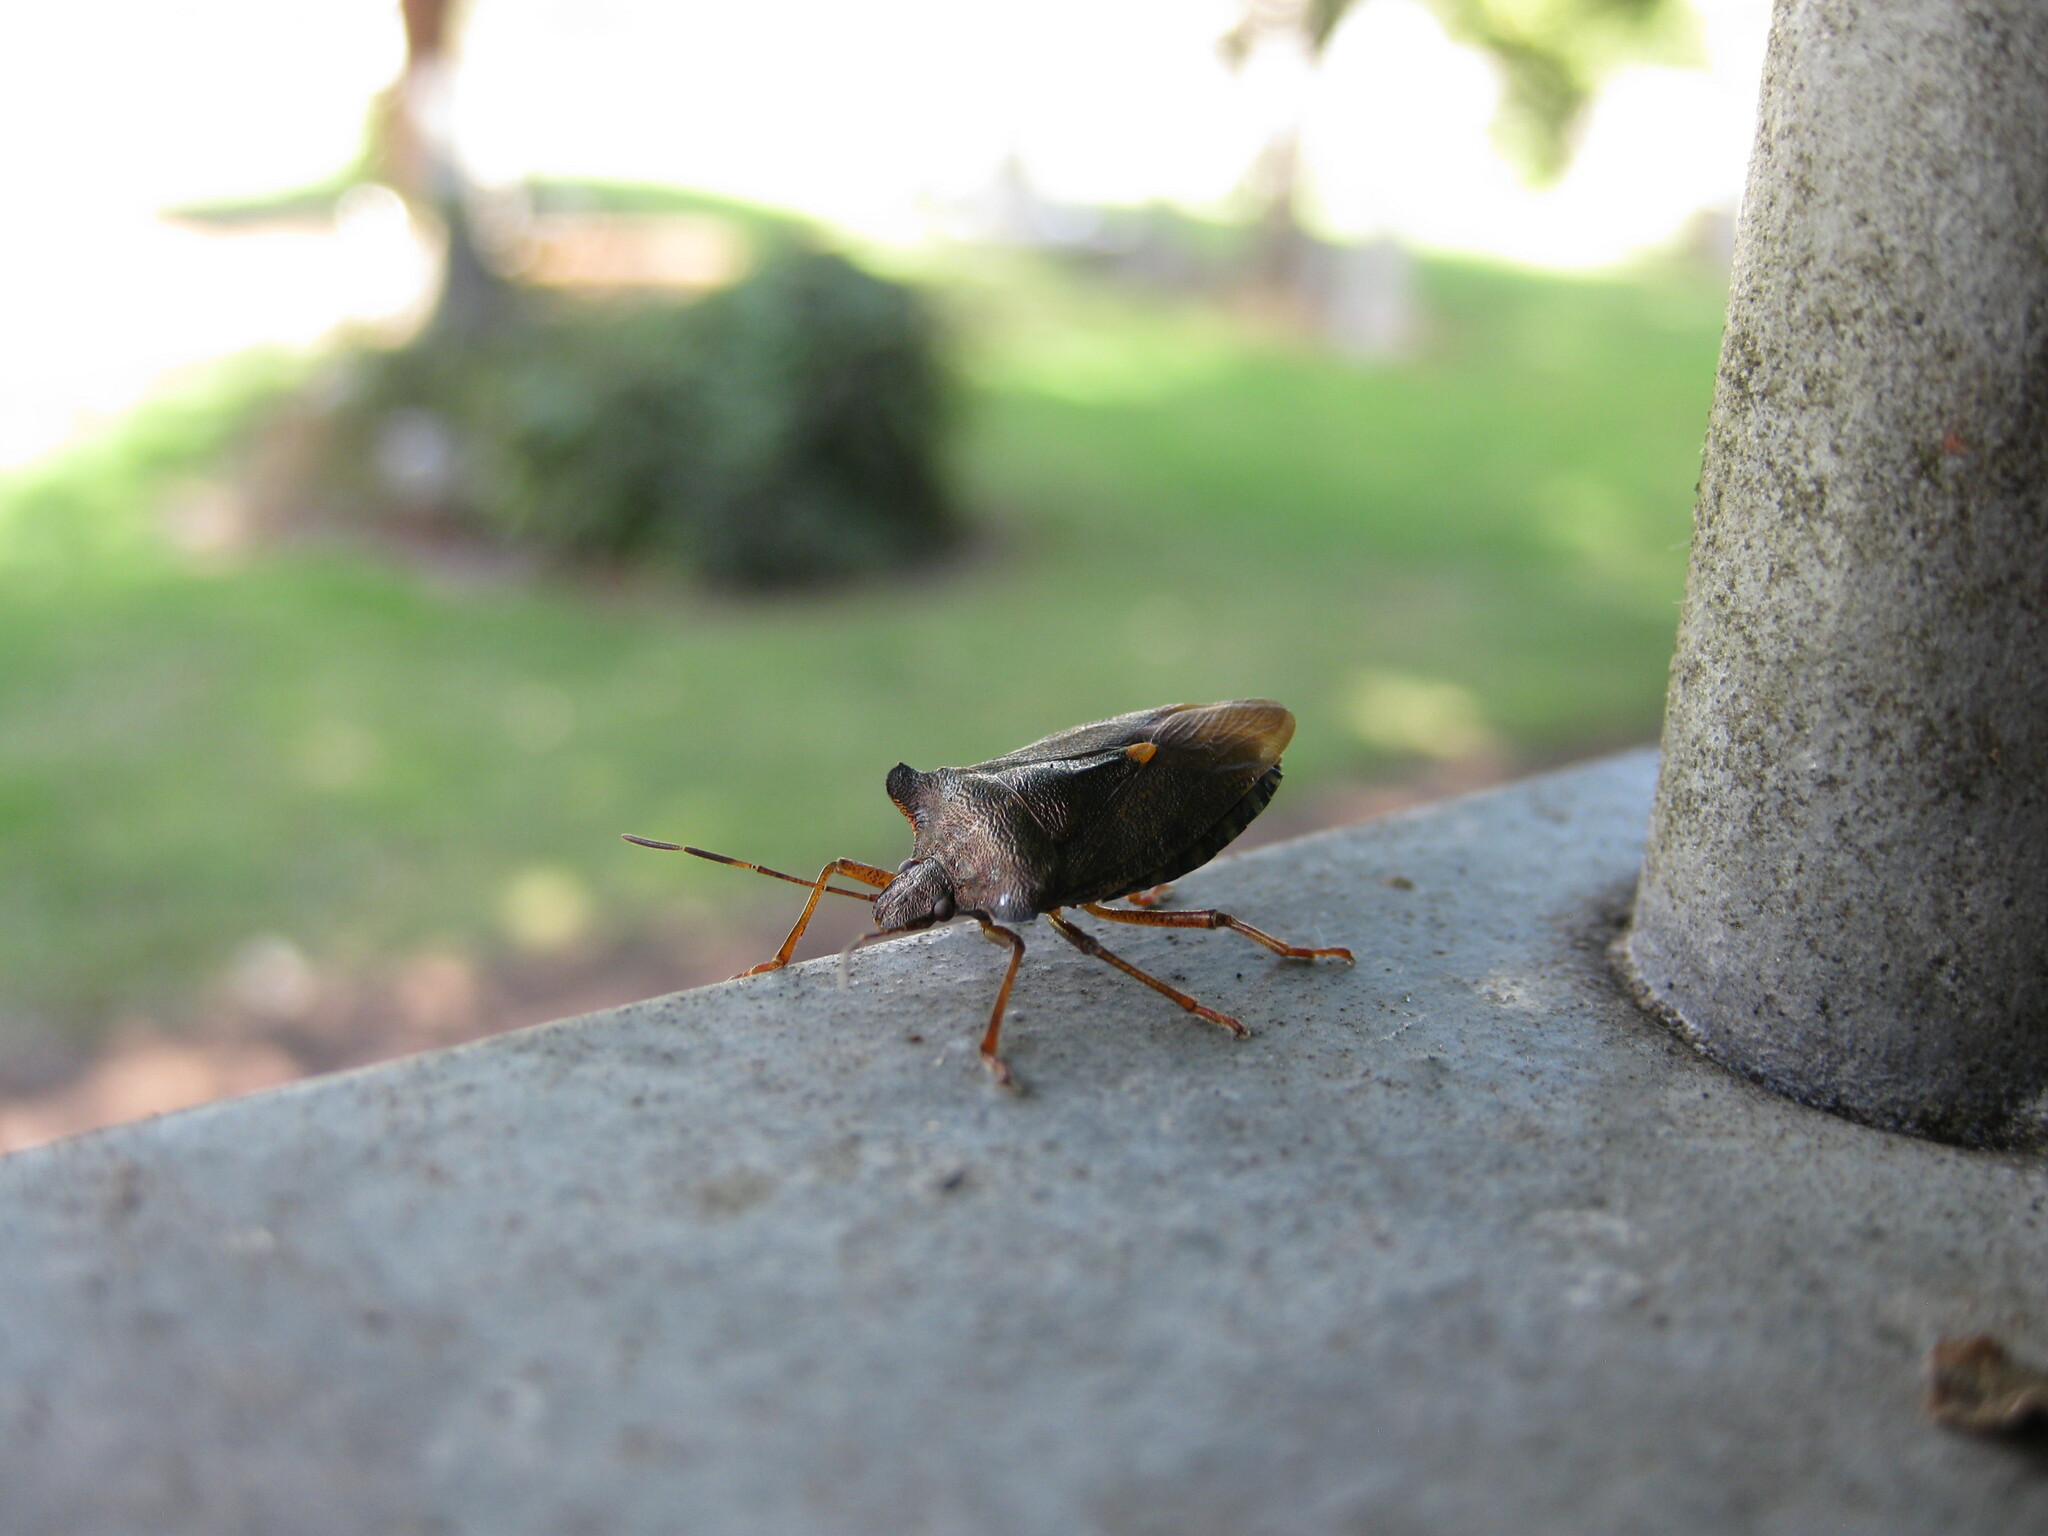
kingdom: Animalia
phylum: Arthropoda
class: Insecta
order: Hemiptera
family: Pentatomidae
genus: Pentatoma
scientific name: Pentatoma rufipes
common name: Forest bug
